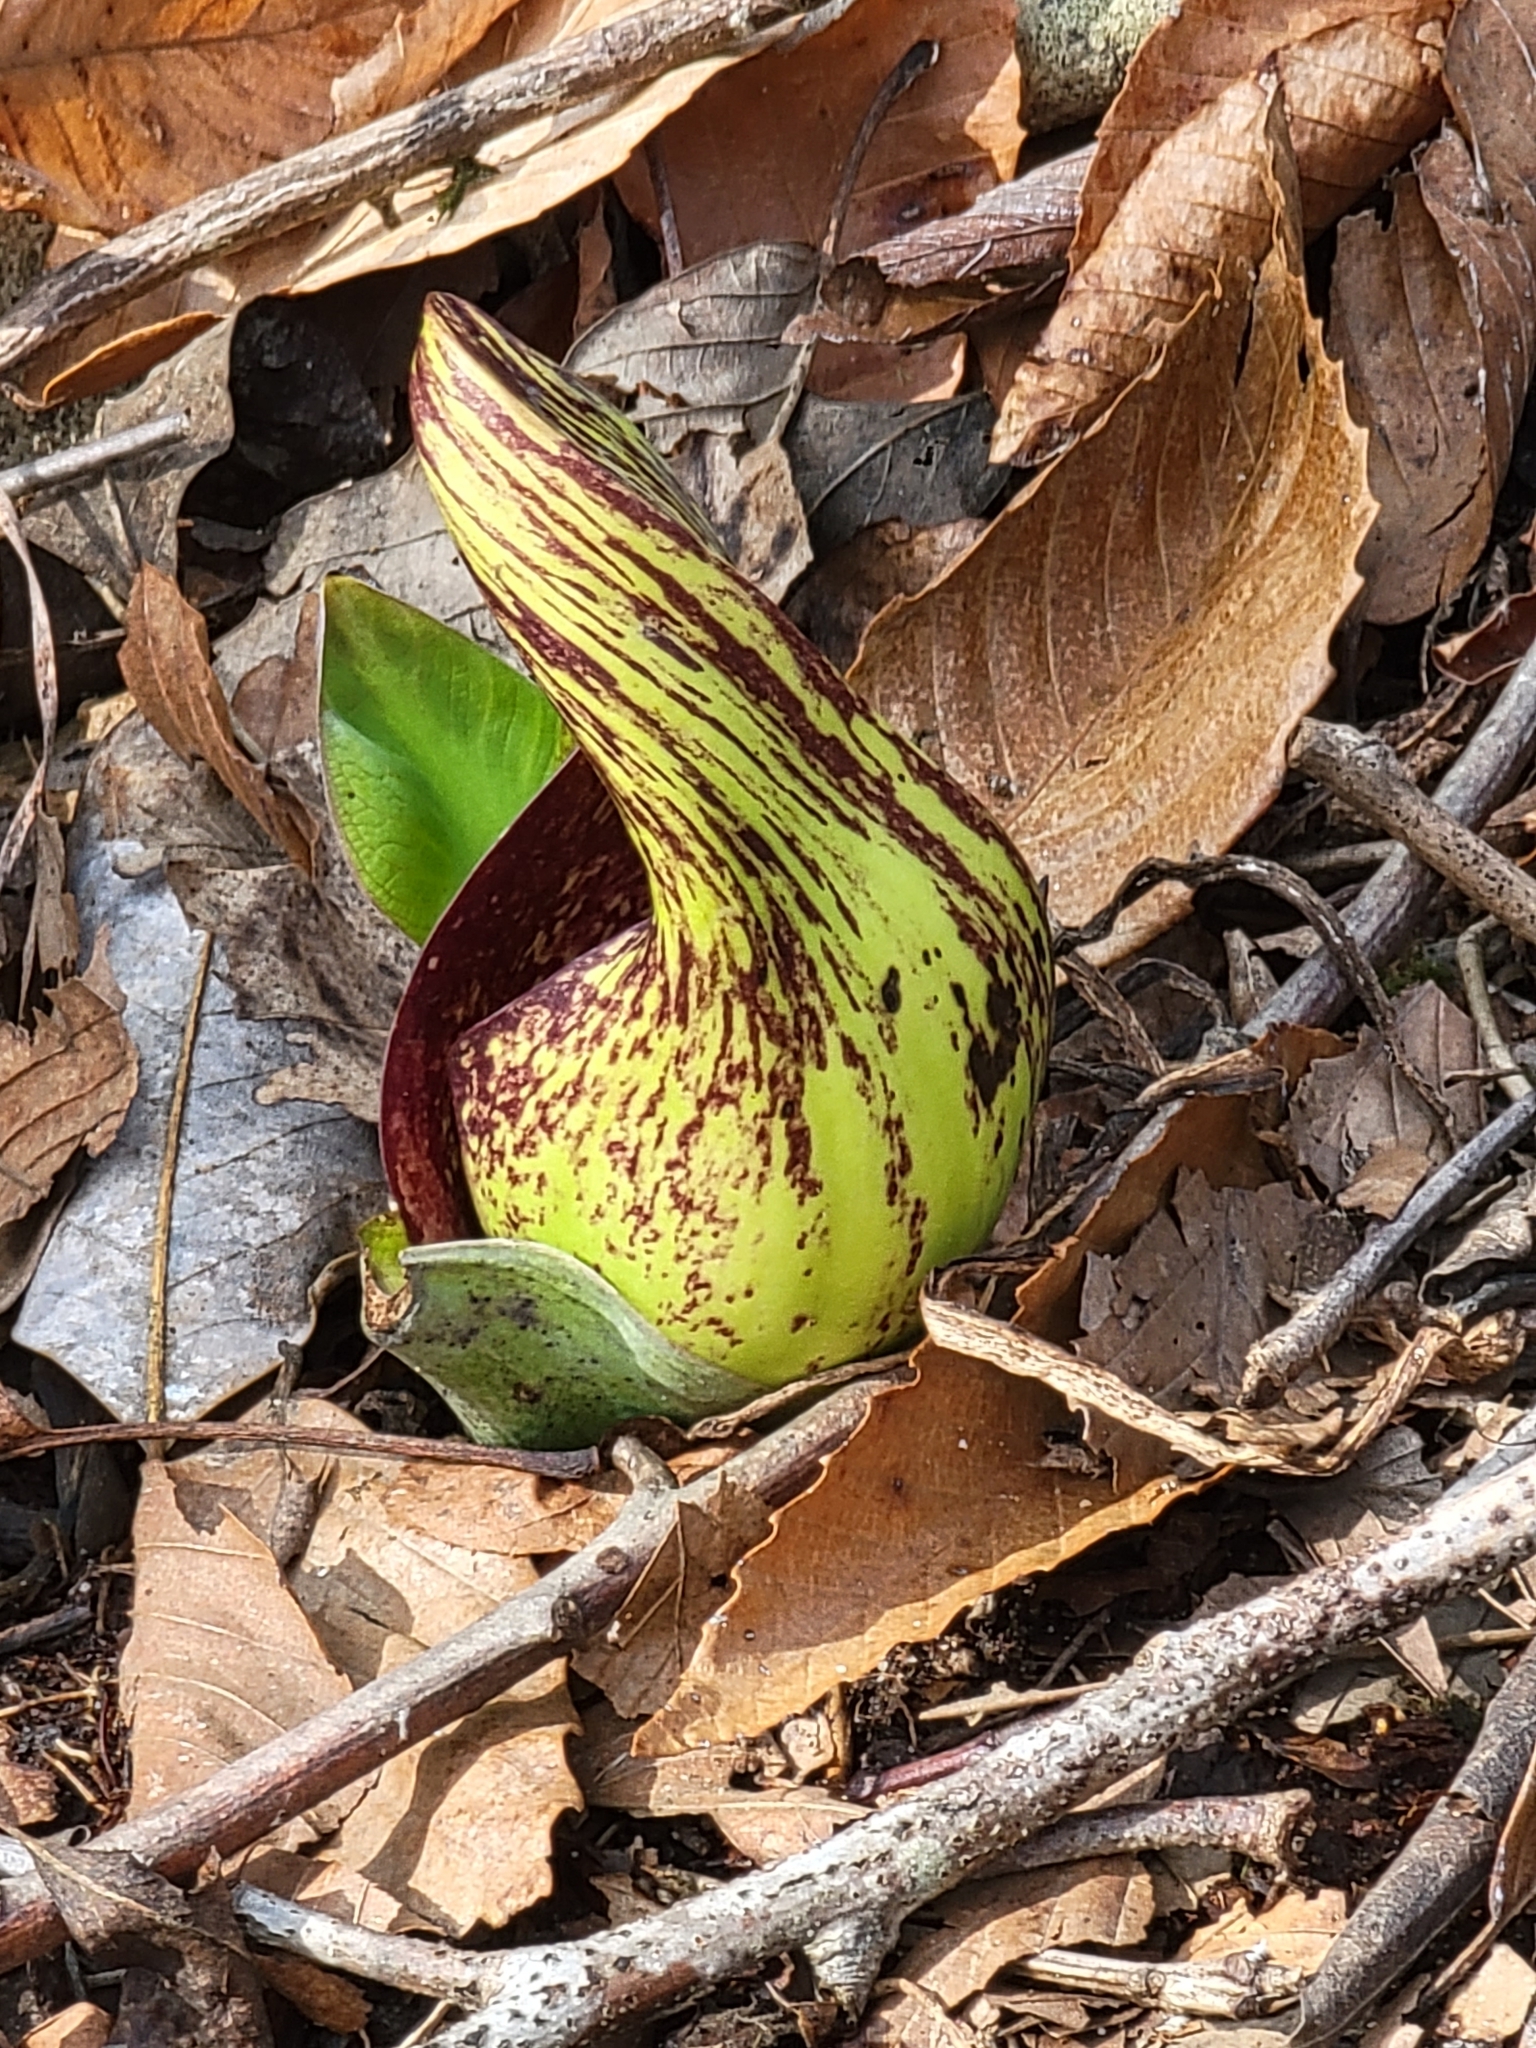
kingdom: Plantae
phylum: Tracheophyta
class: Liliopsida
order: Alismatales
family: Araceae
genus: Symplocarpus
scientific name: Symplocarpus foetidus
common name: Eastern skunk cabbage
